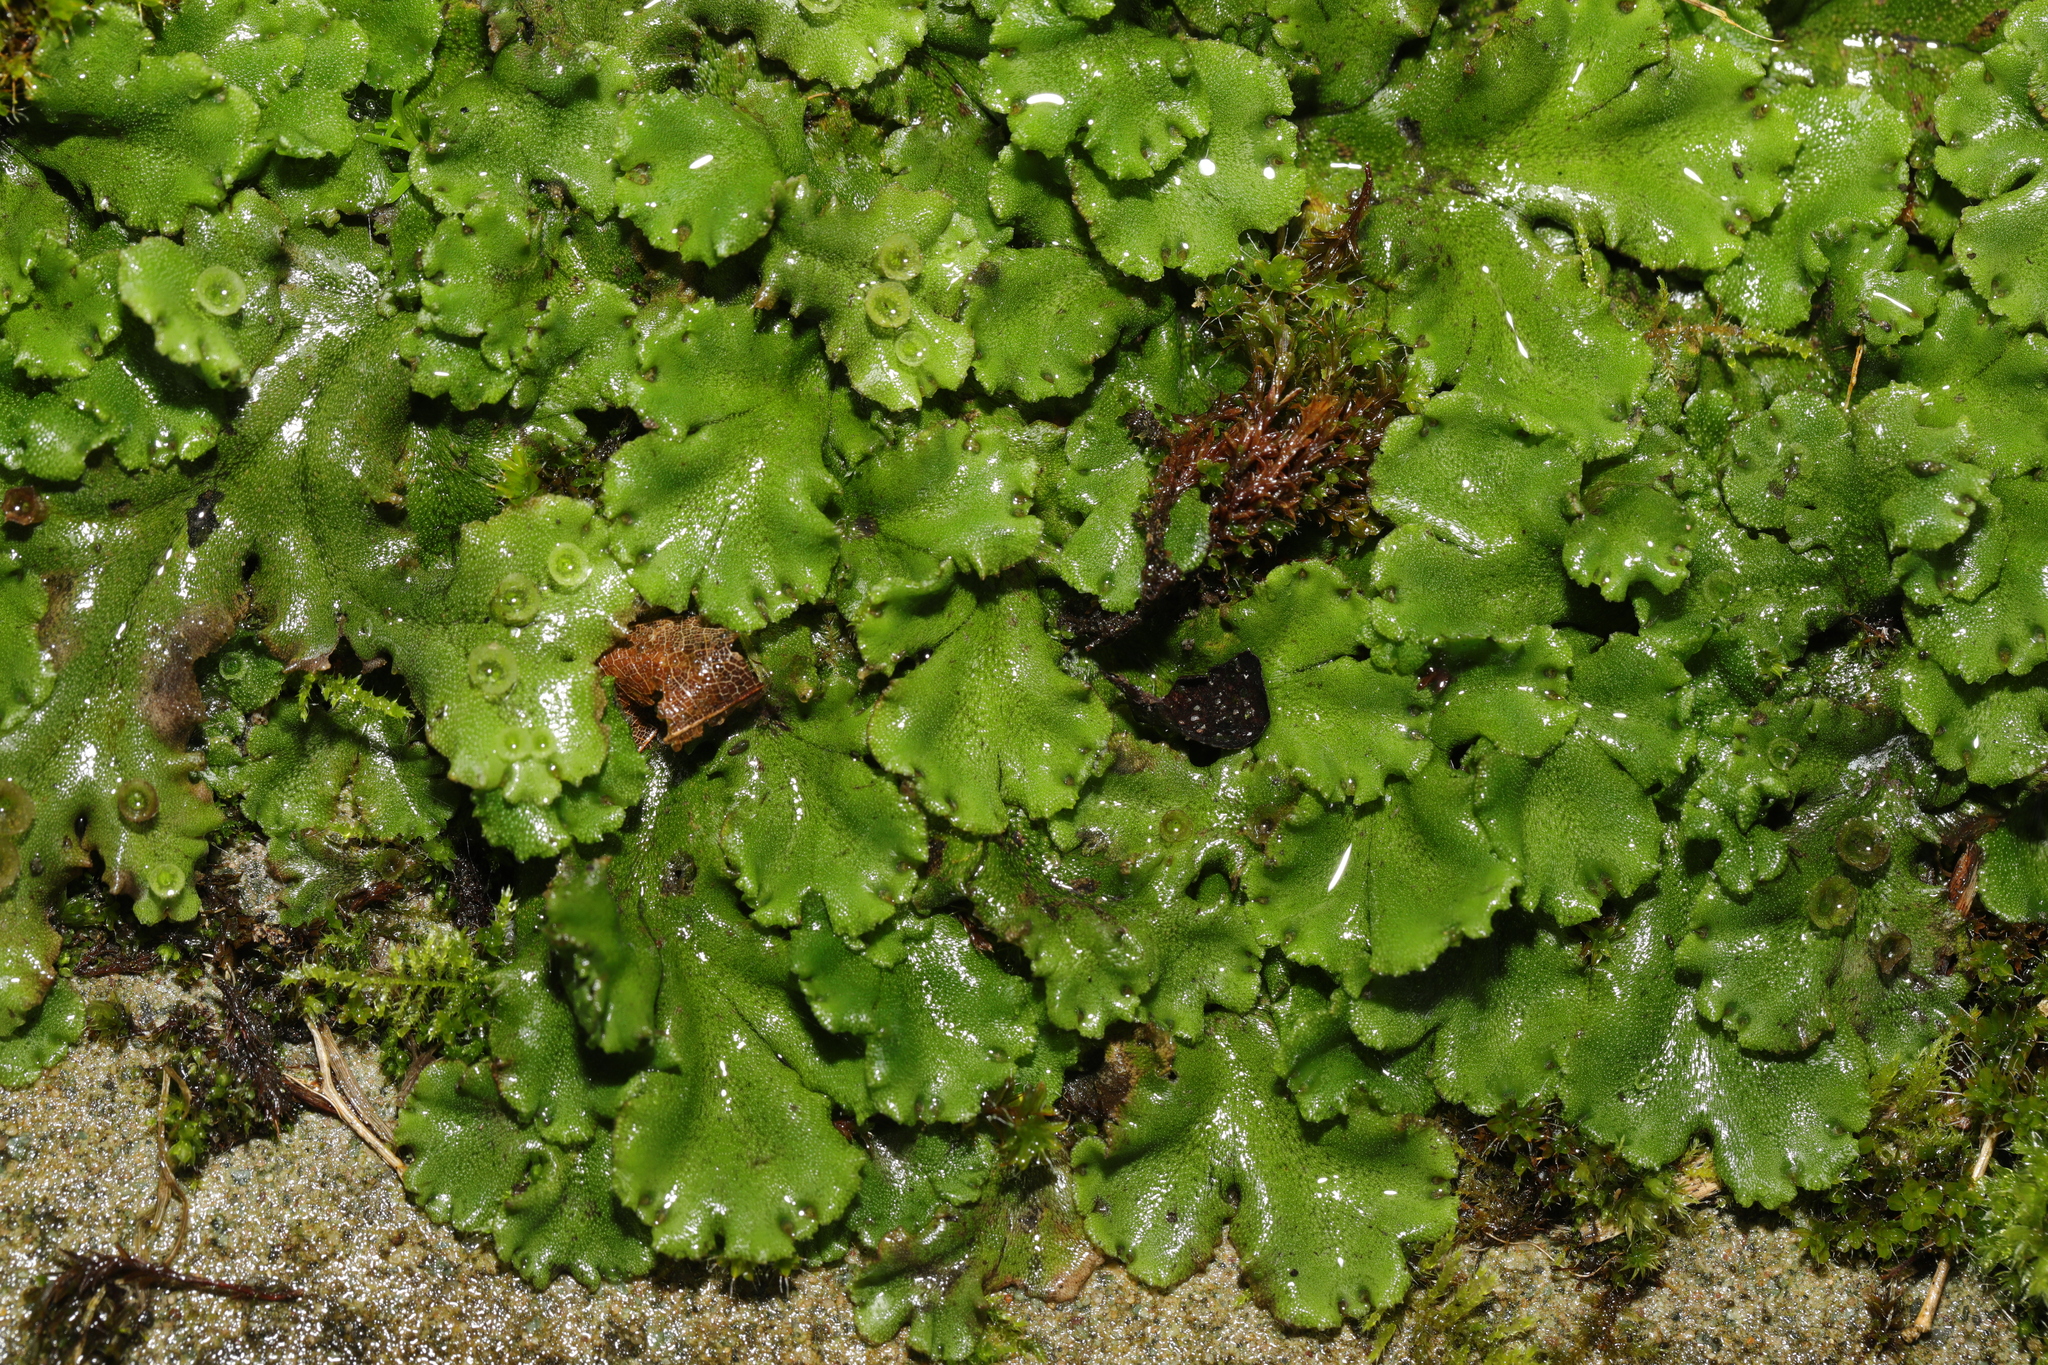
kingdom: Plantae
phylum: Marchantiophyta
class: Marchantiopsida
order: Marchantiales
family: Marchantiaceae
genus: Marchantia
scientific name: Marchantia polymorpha
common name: Common liverwort
